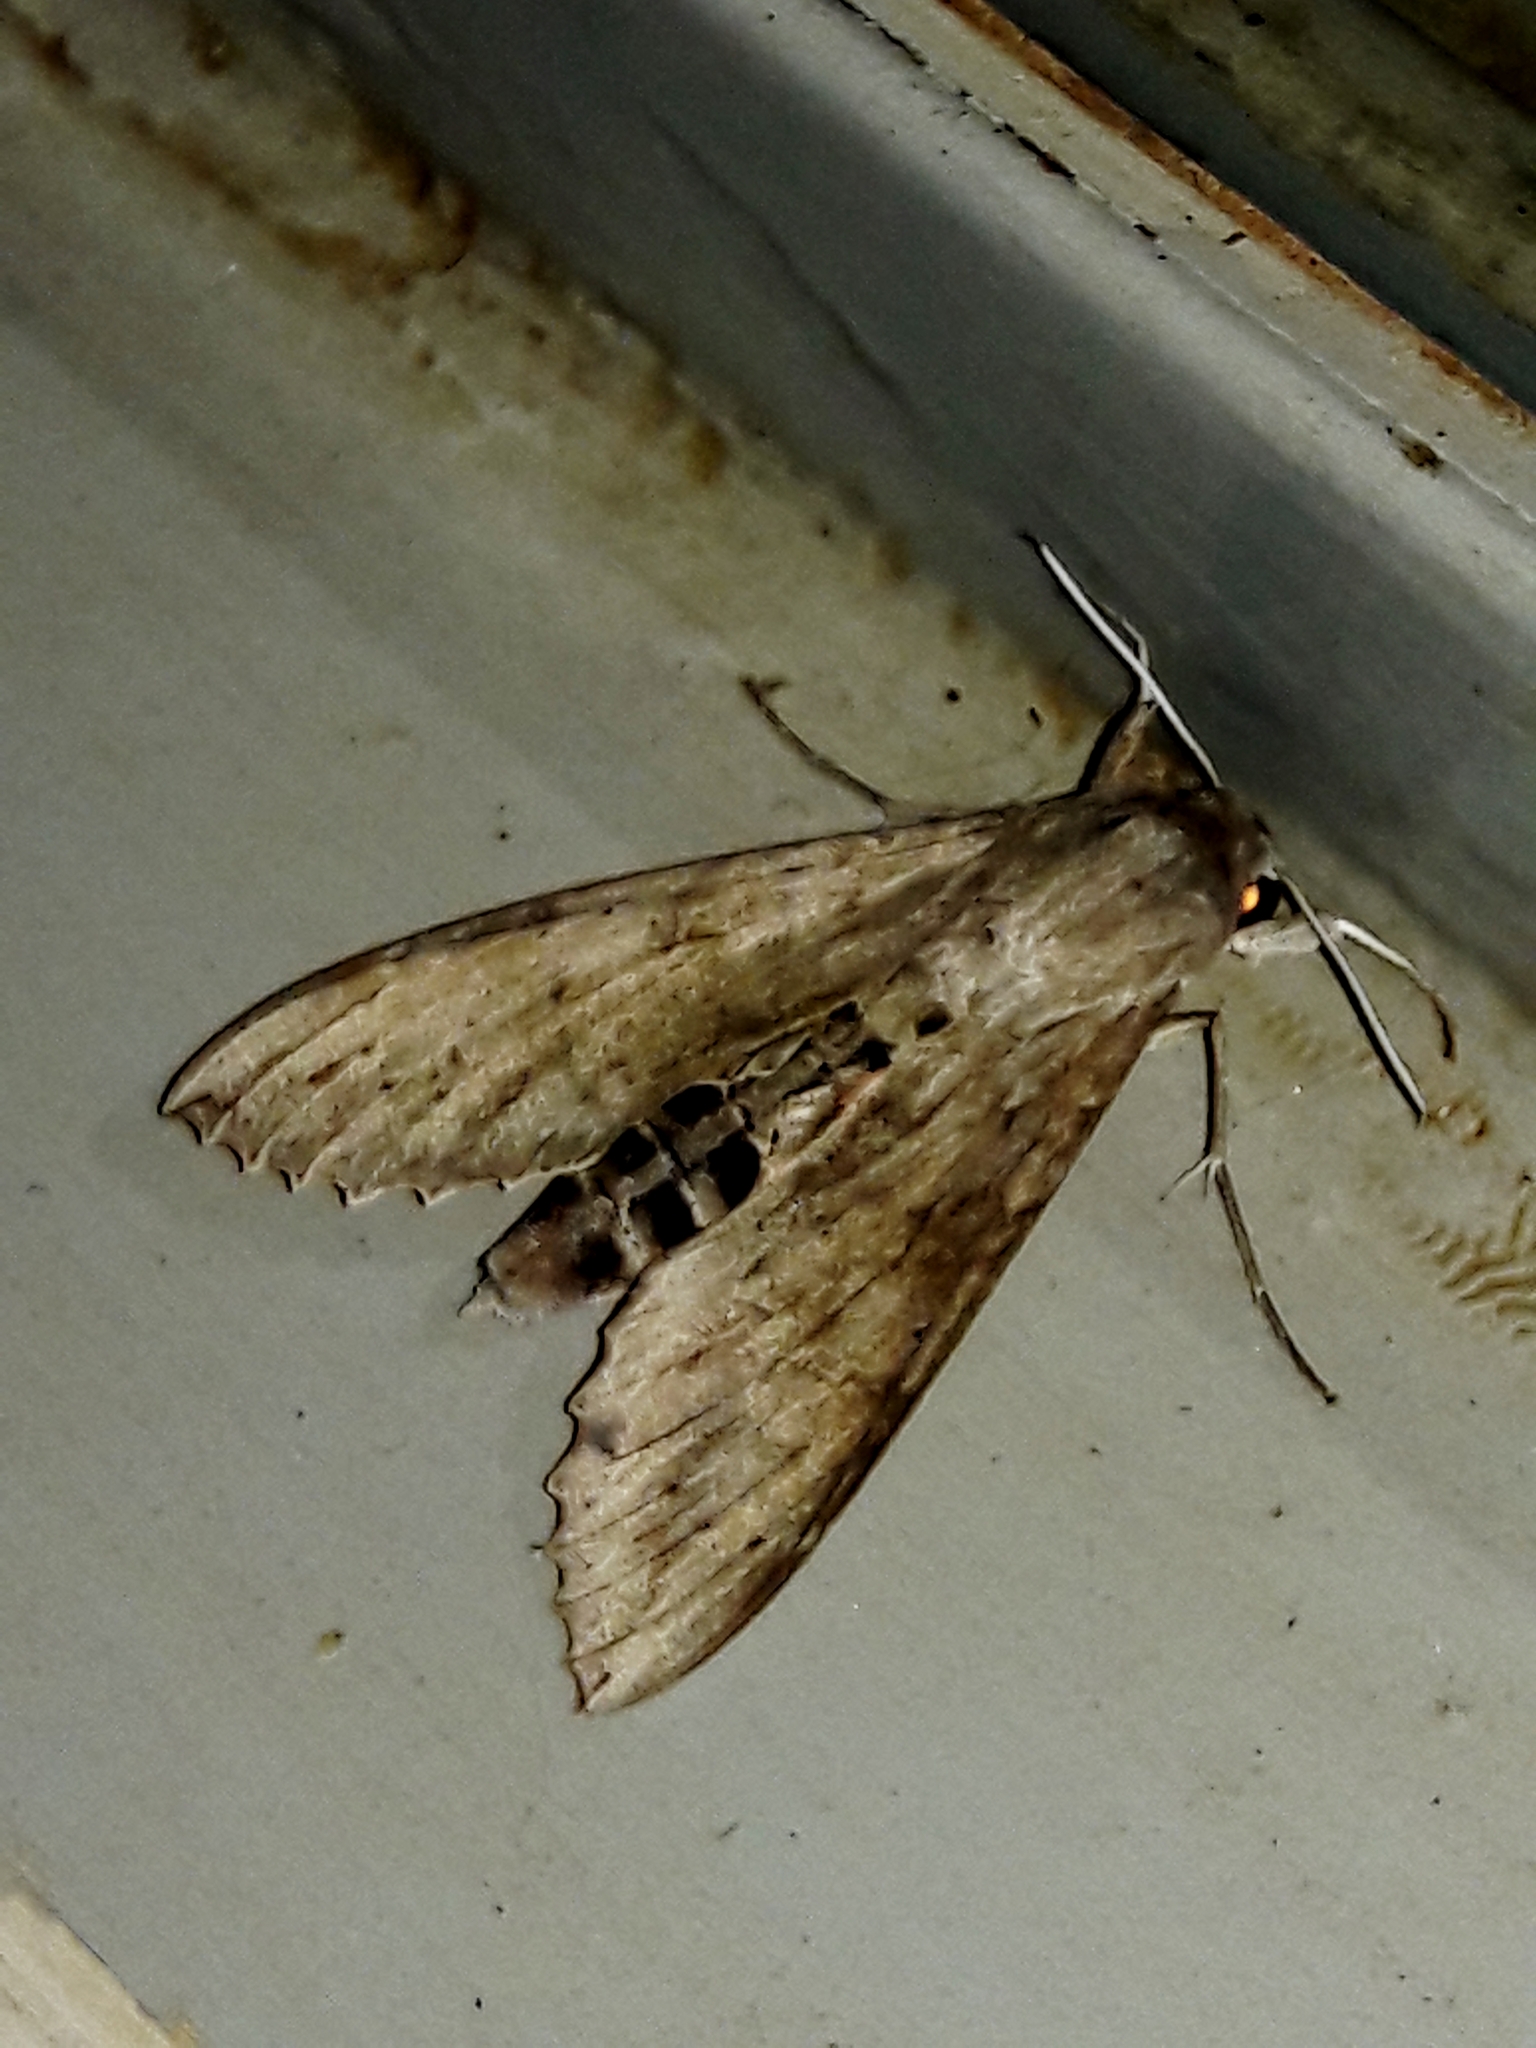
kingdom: Animalia
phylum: Arthropoda
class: Insecta
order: Lepidoptera
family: Sphingidae
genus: Erinnyis
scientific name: Erinnyis ello
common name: Ello sphinx
